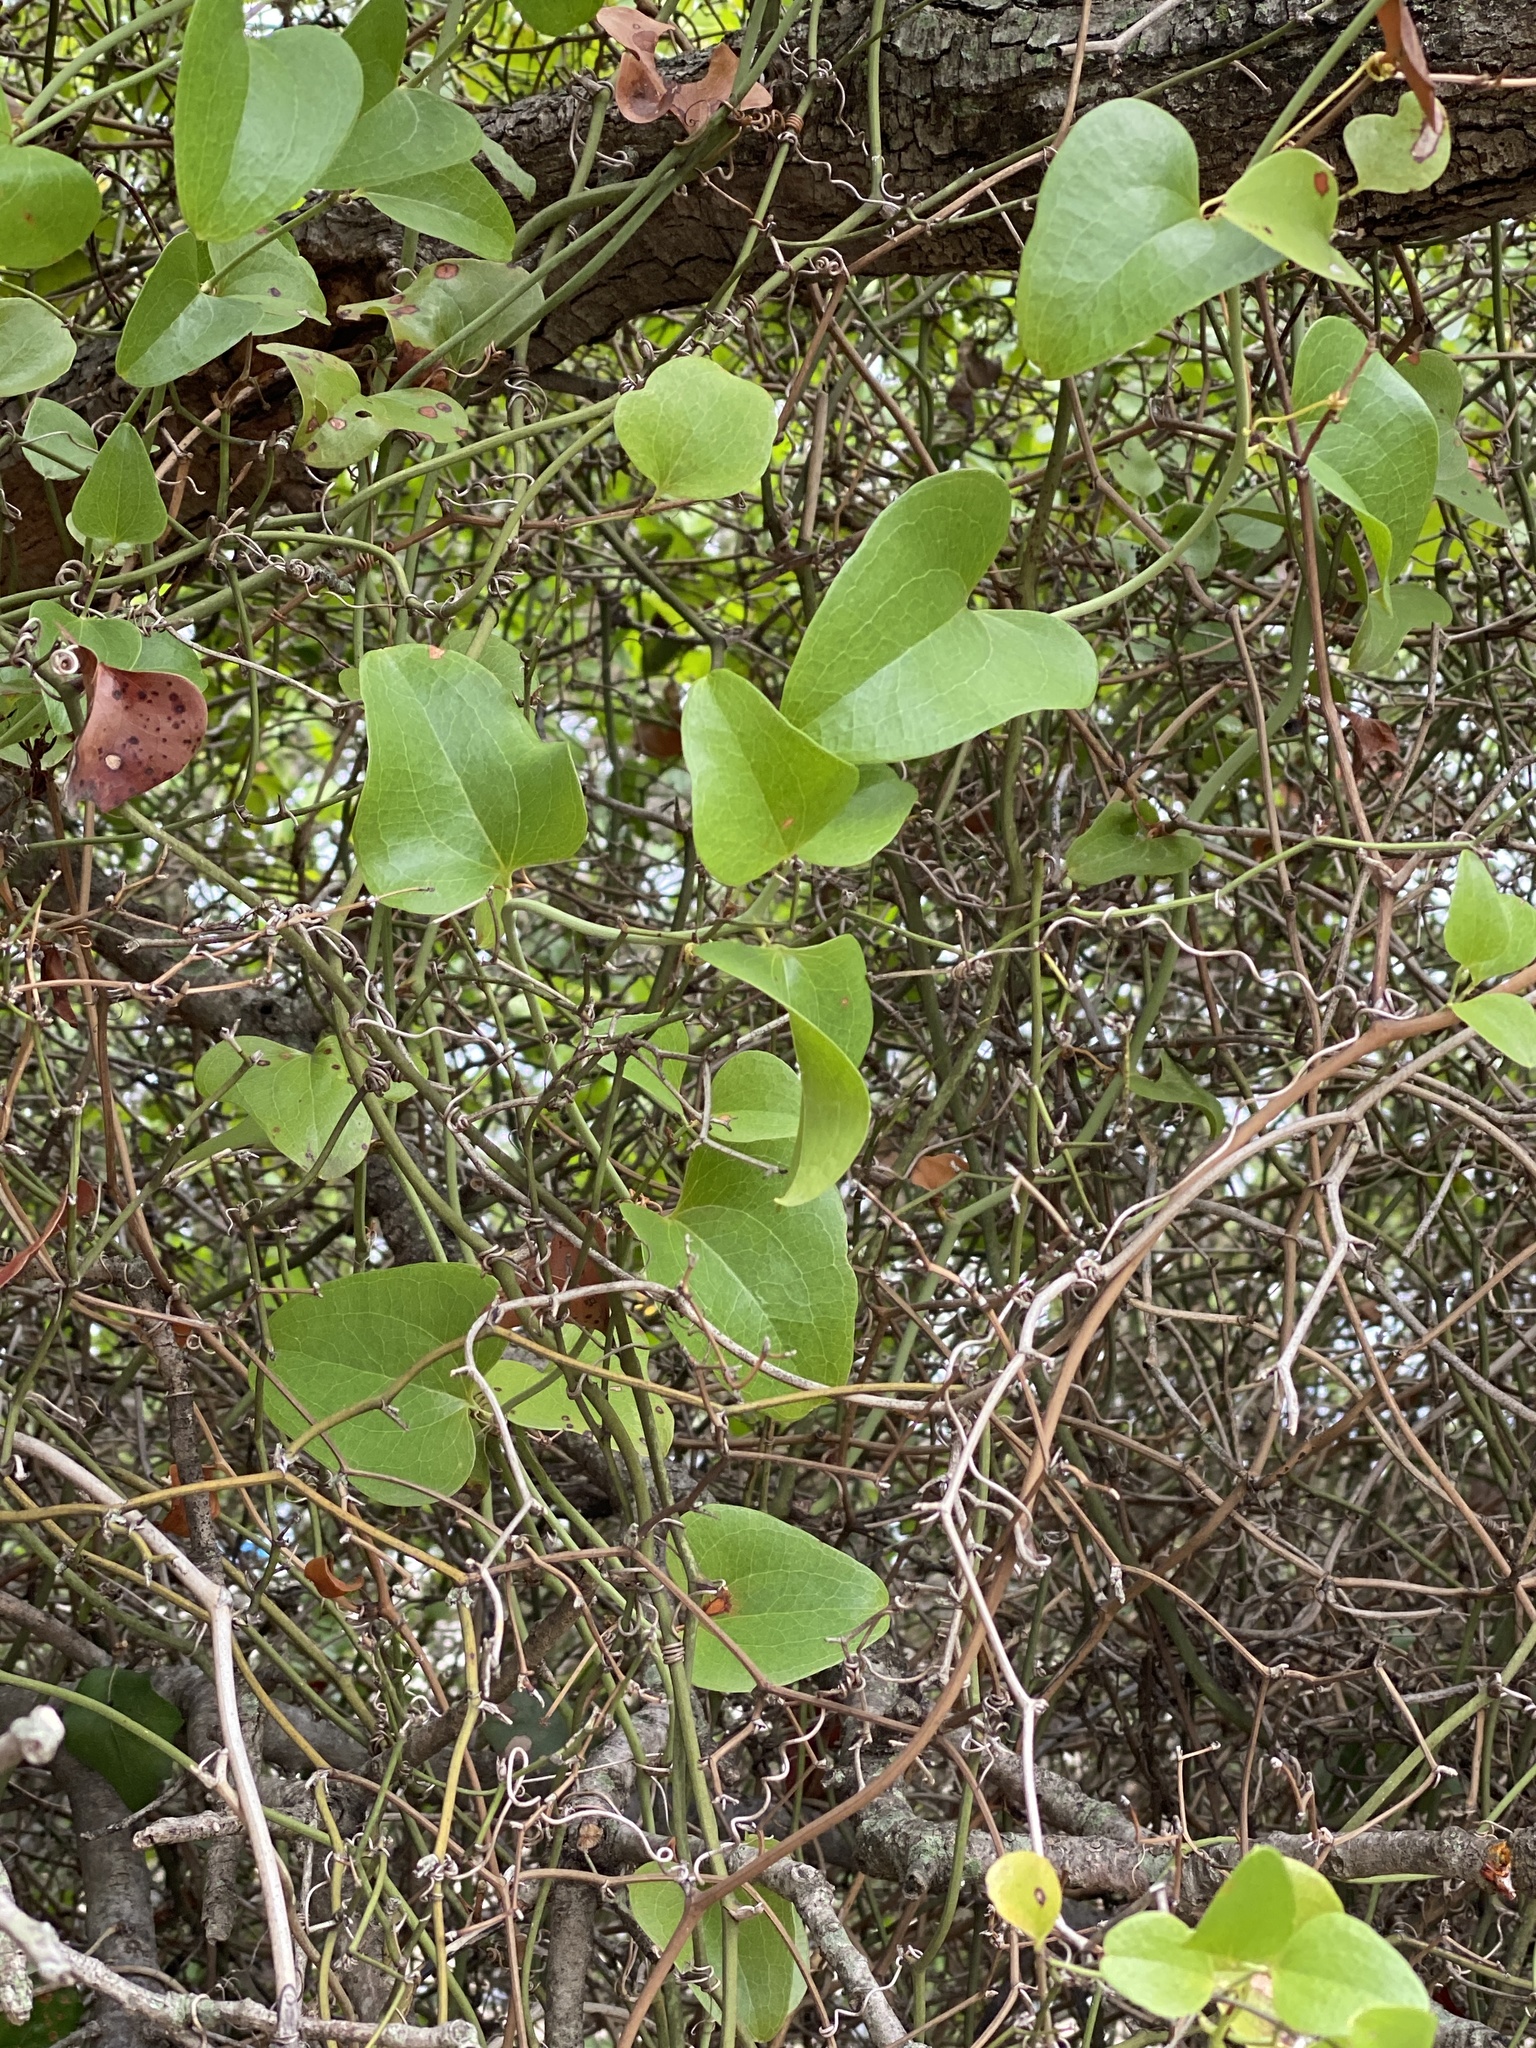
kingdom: Plantae
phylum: Tracheophyta
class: Liliopsida
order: Liliales
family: Smilacaceae
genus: Smilax
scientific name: Smilax bona-nox
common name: Catbrier
